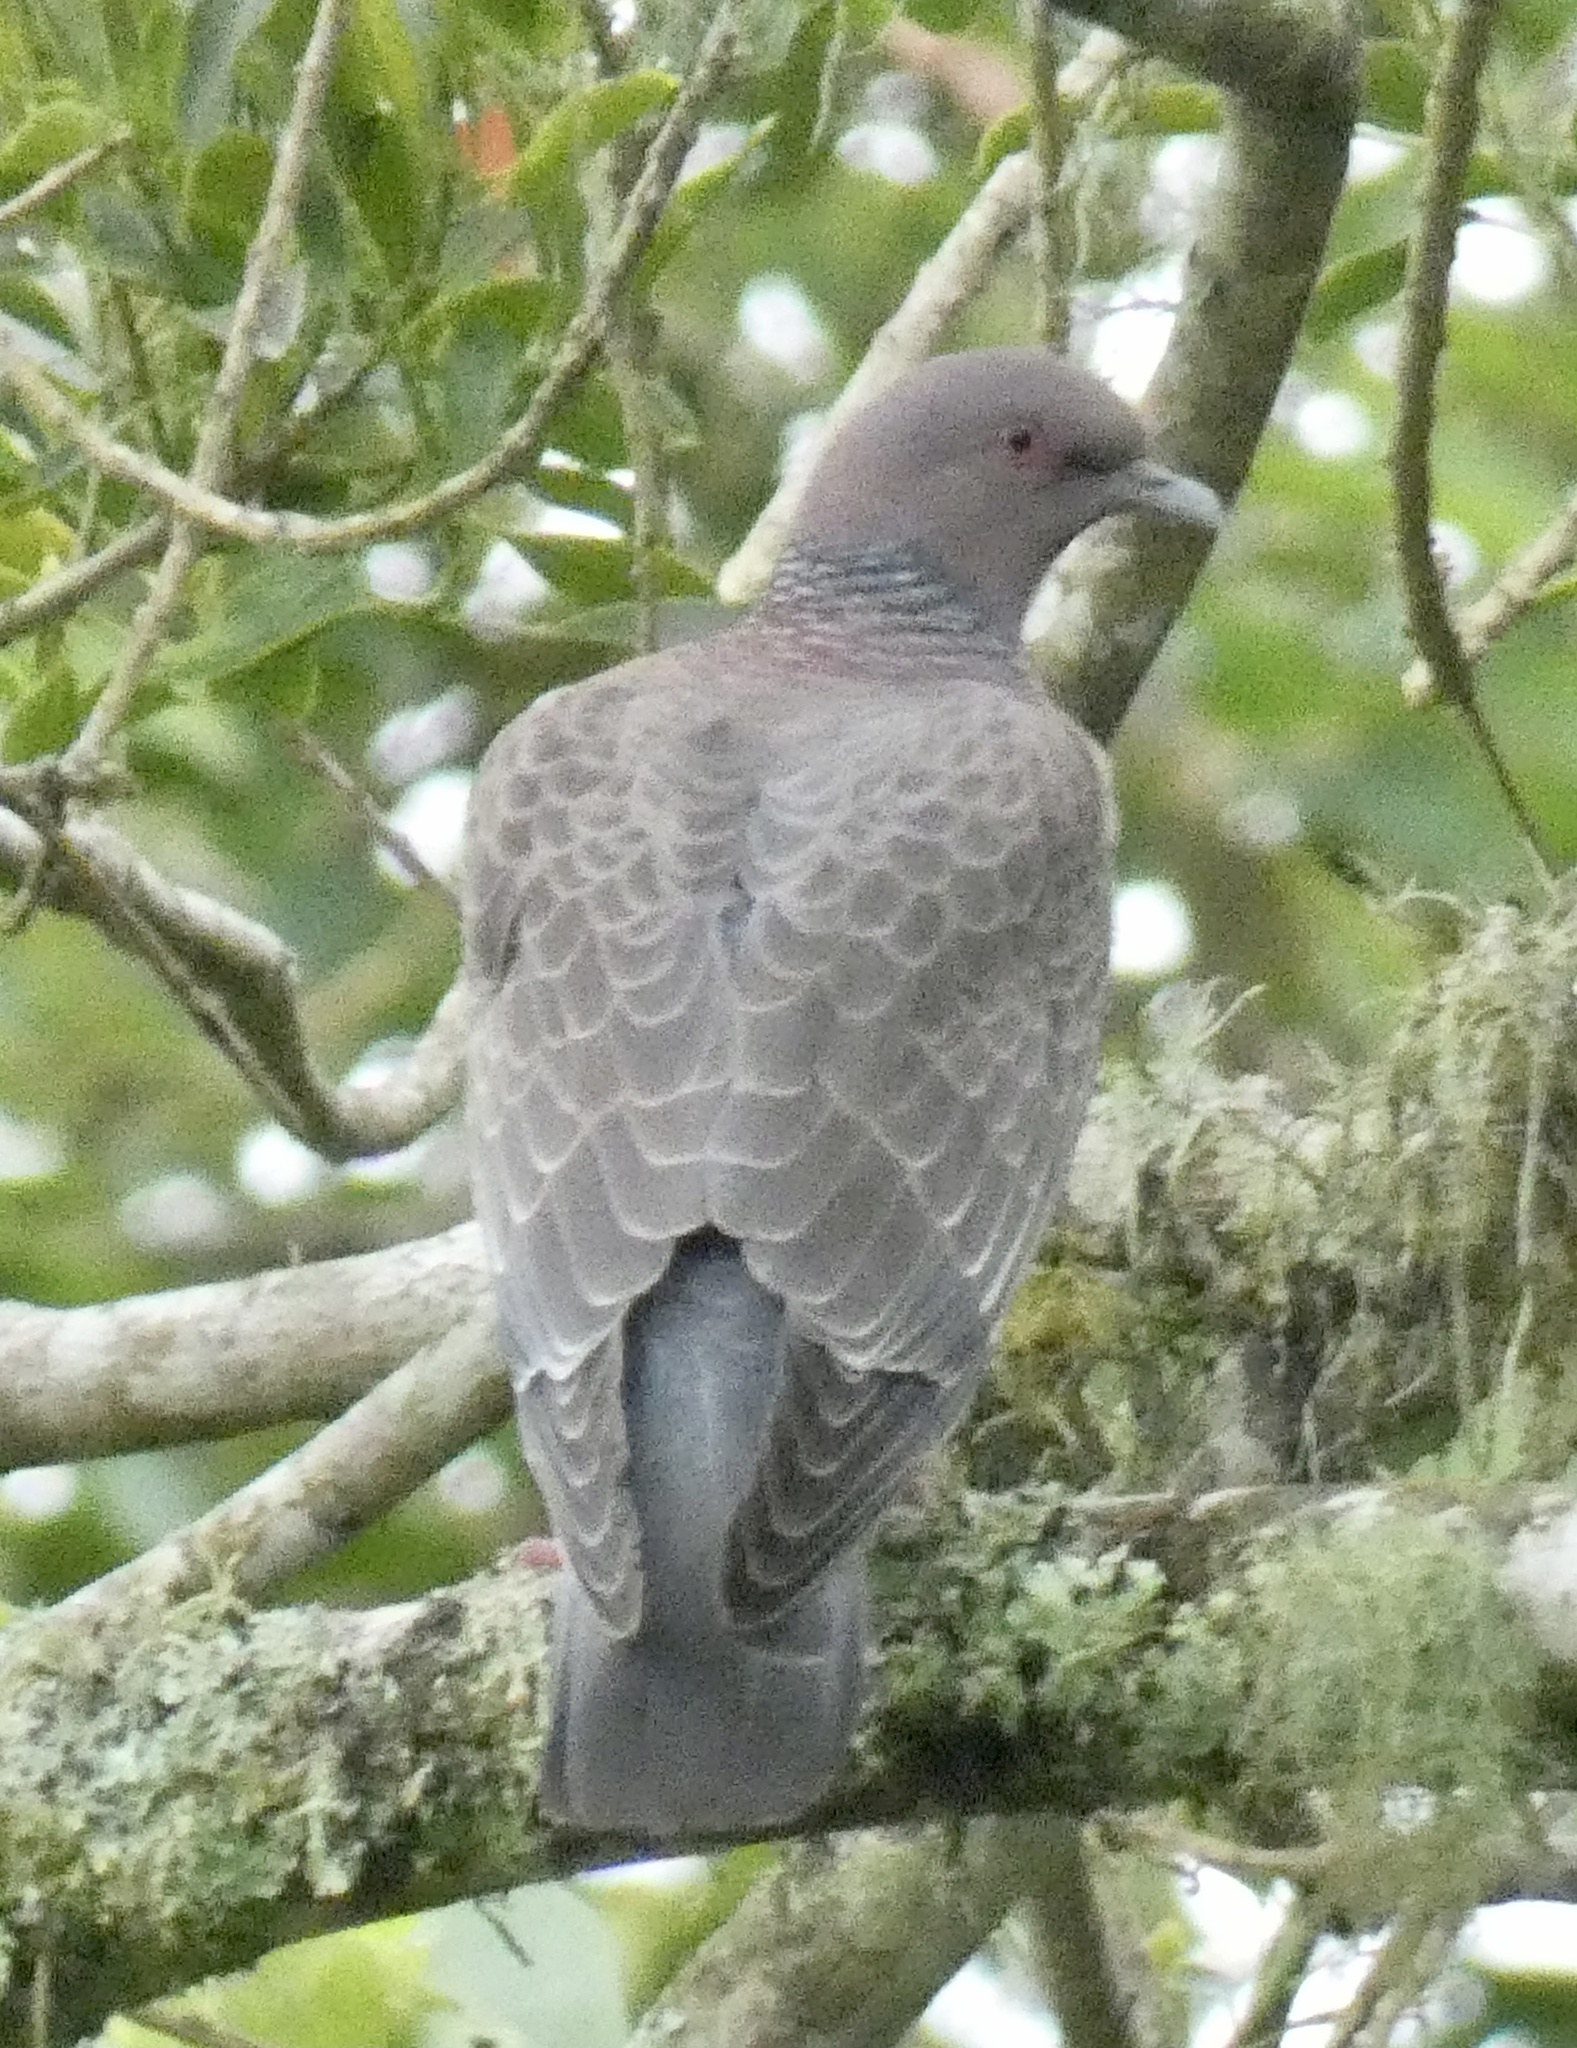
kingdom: Animalia
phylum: Chordata
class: Aves
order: Columbiformes
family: Columbidae
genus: Patagioenas
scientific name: Patagioenas picazuro
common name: Picazuro pigeon
